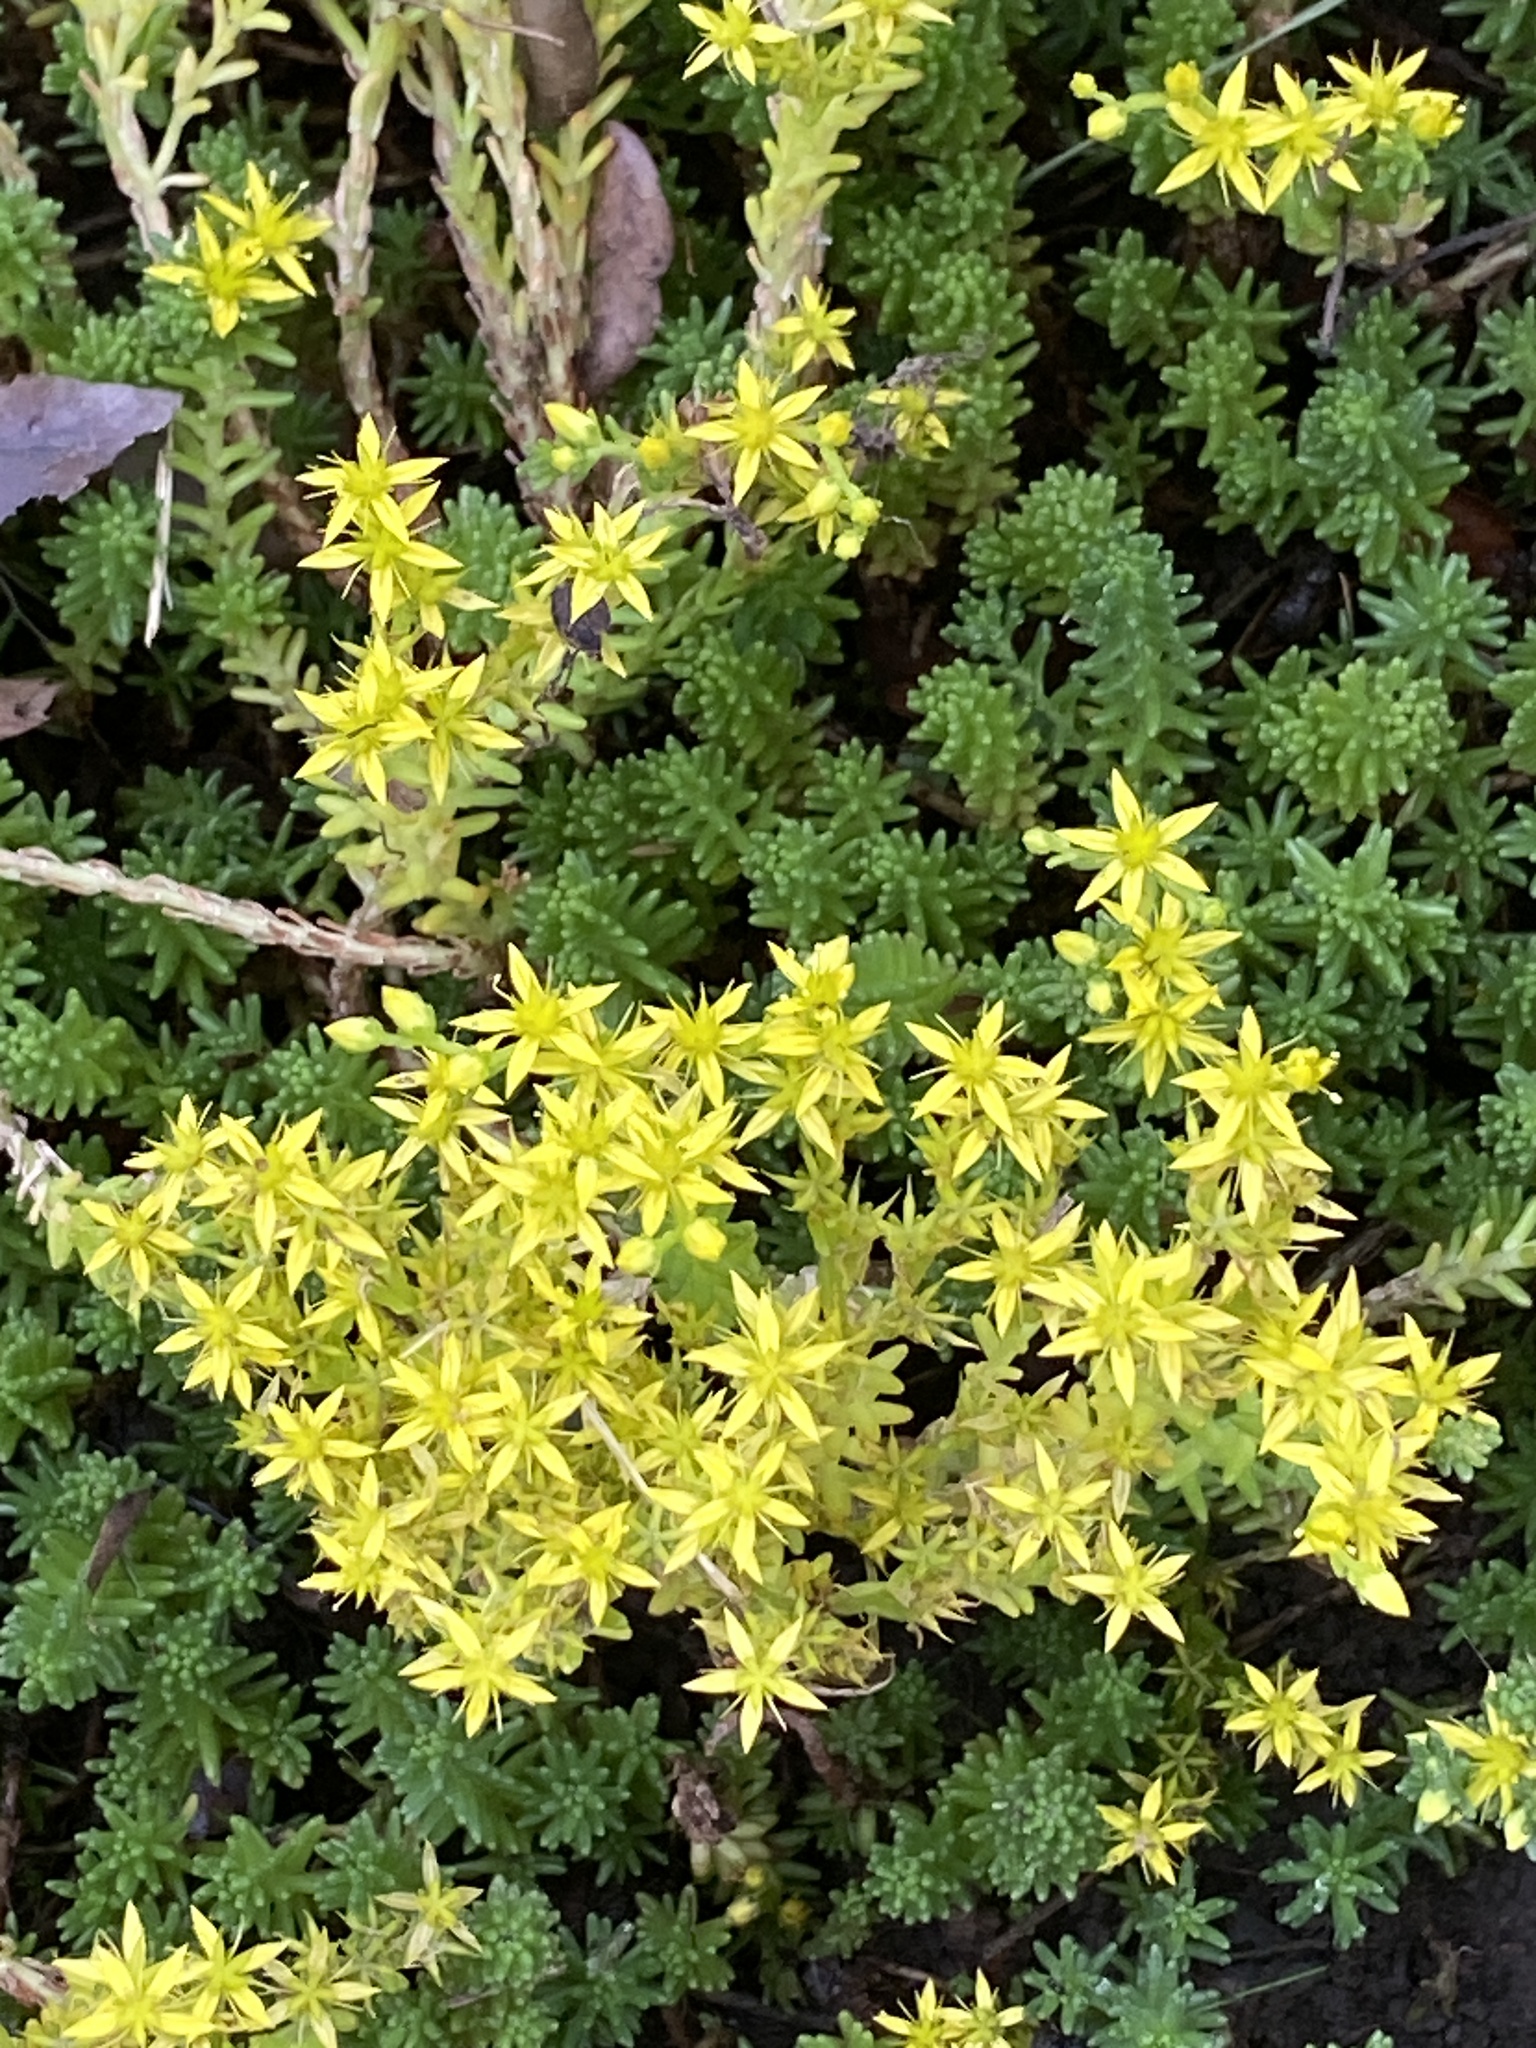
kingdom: Plantae
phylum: Tracheophyta
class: Magnoliopsida
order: Saxifragales
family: Crassulaceae
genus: Sedum
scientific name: Sedum sexangulare
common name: Tasteless stonecrop
